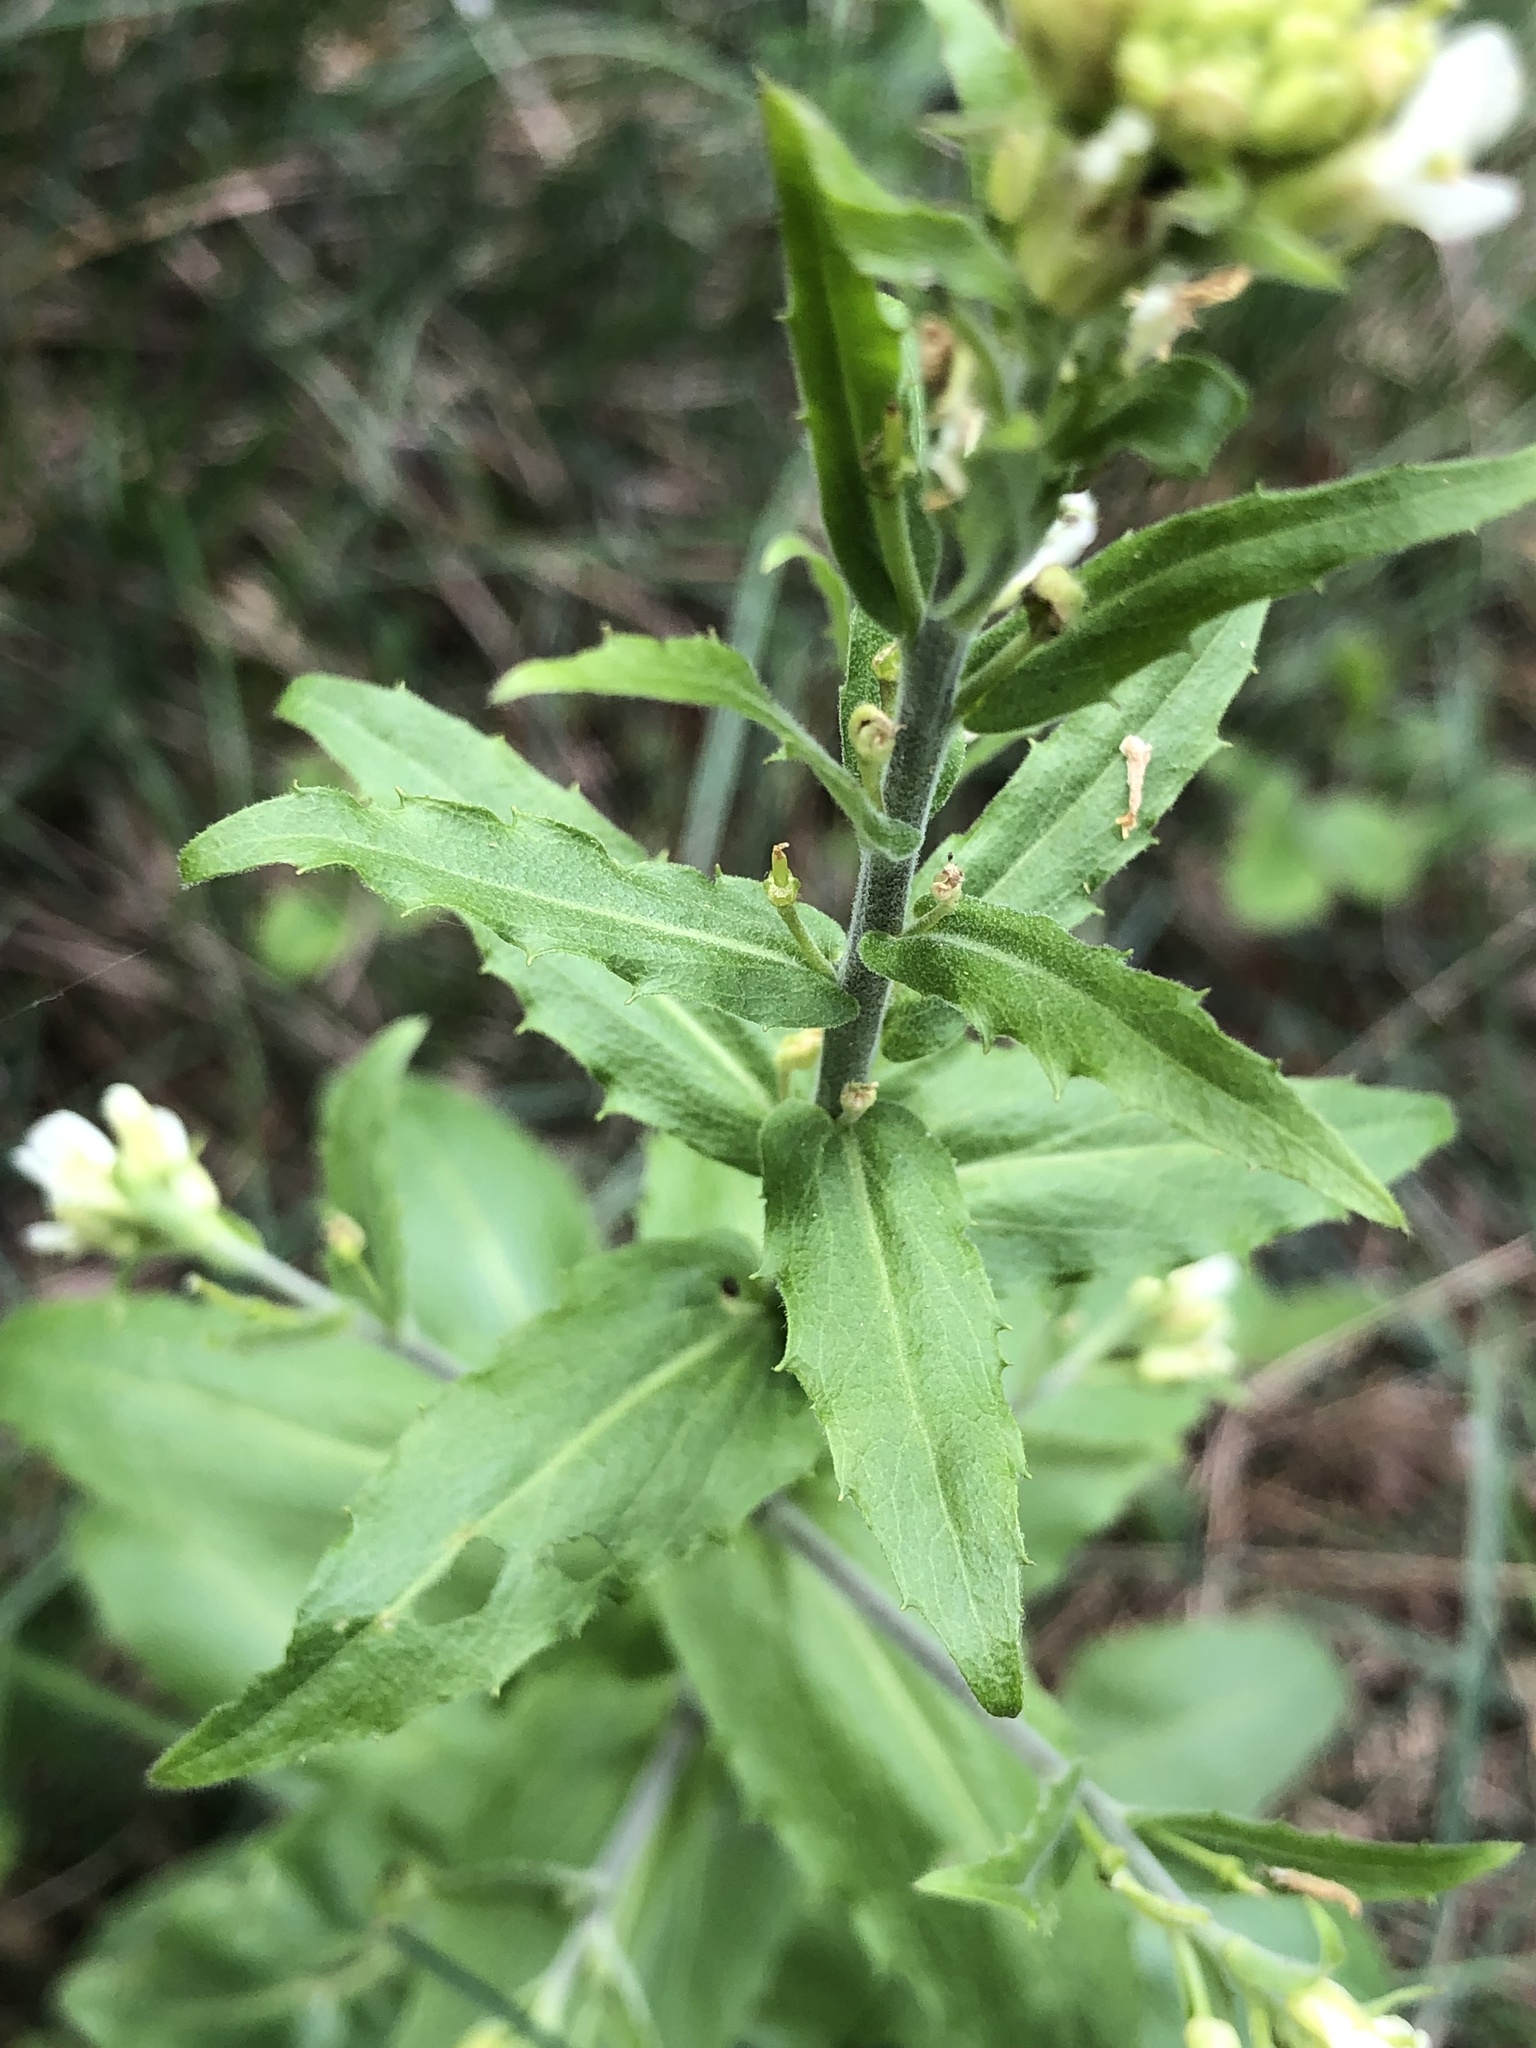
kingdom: Plantae
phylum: Tracheophyta
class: Magnoliopsida
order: Brassicales
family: Brassicaceae
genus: Pseudoturritis
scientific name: Pseudoturritis turrita
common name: Tower cress
